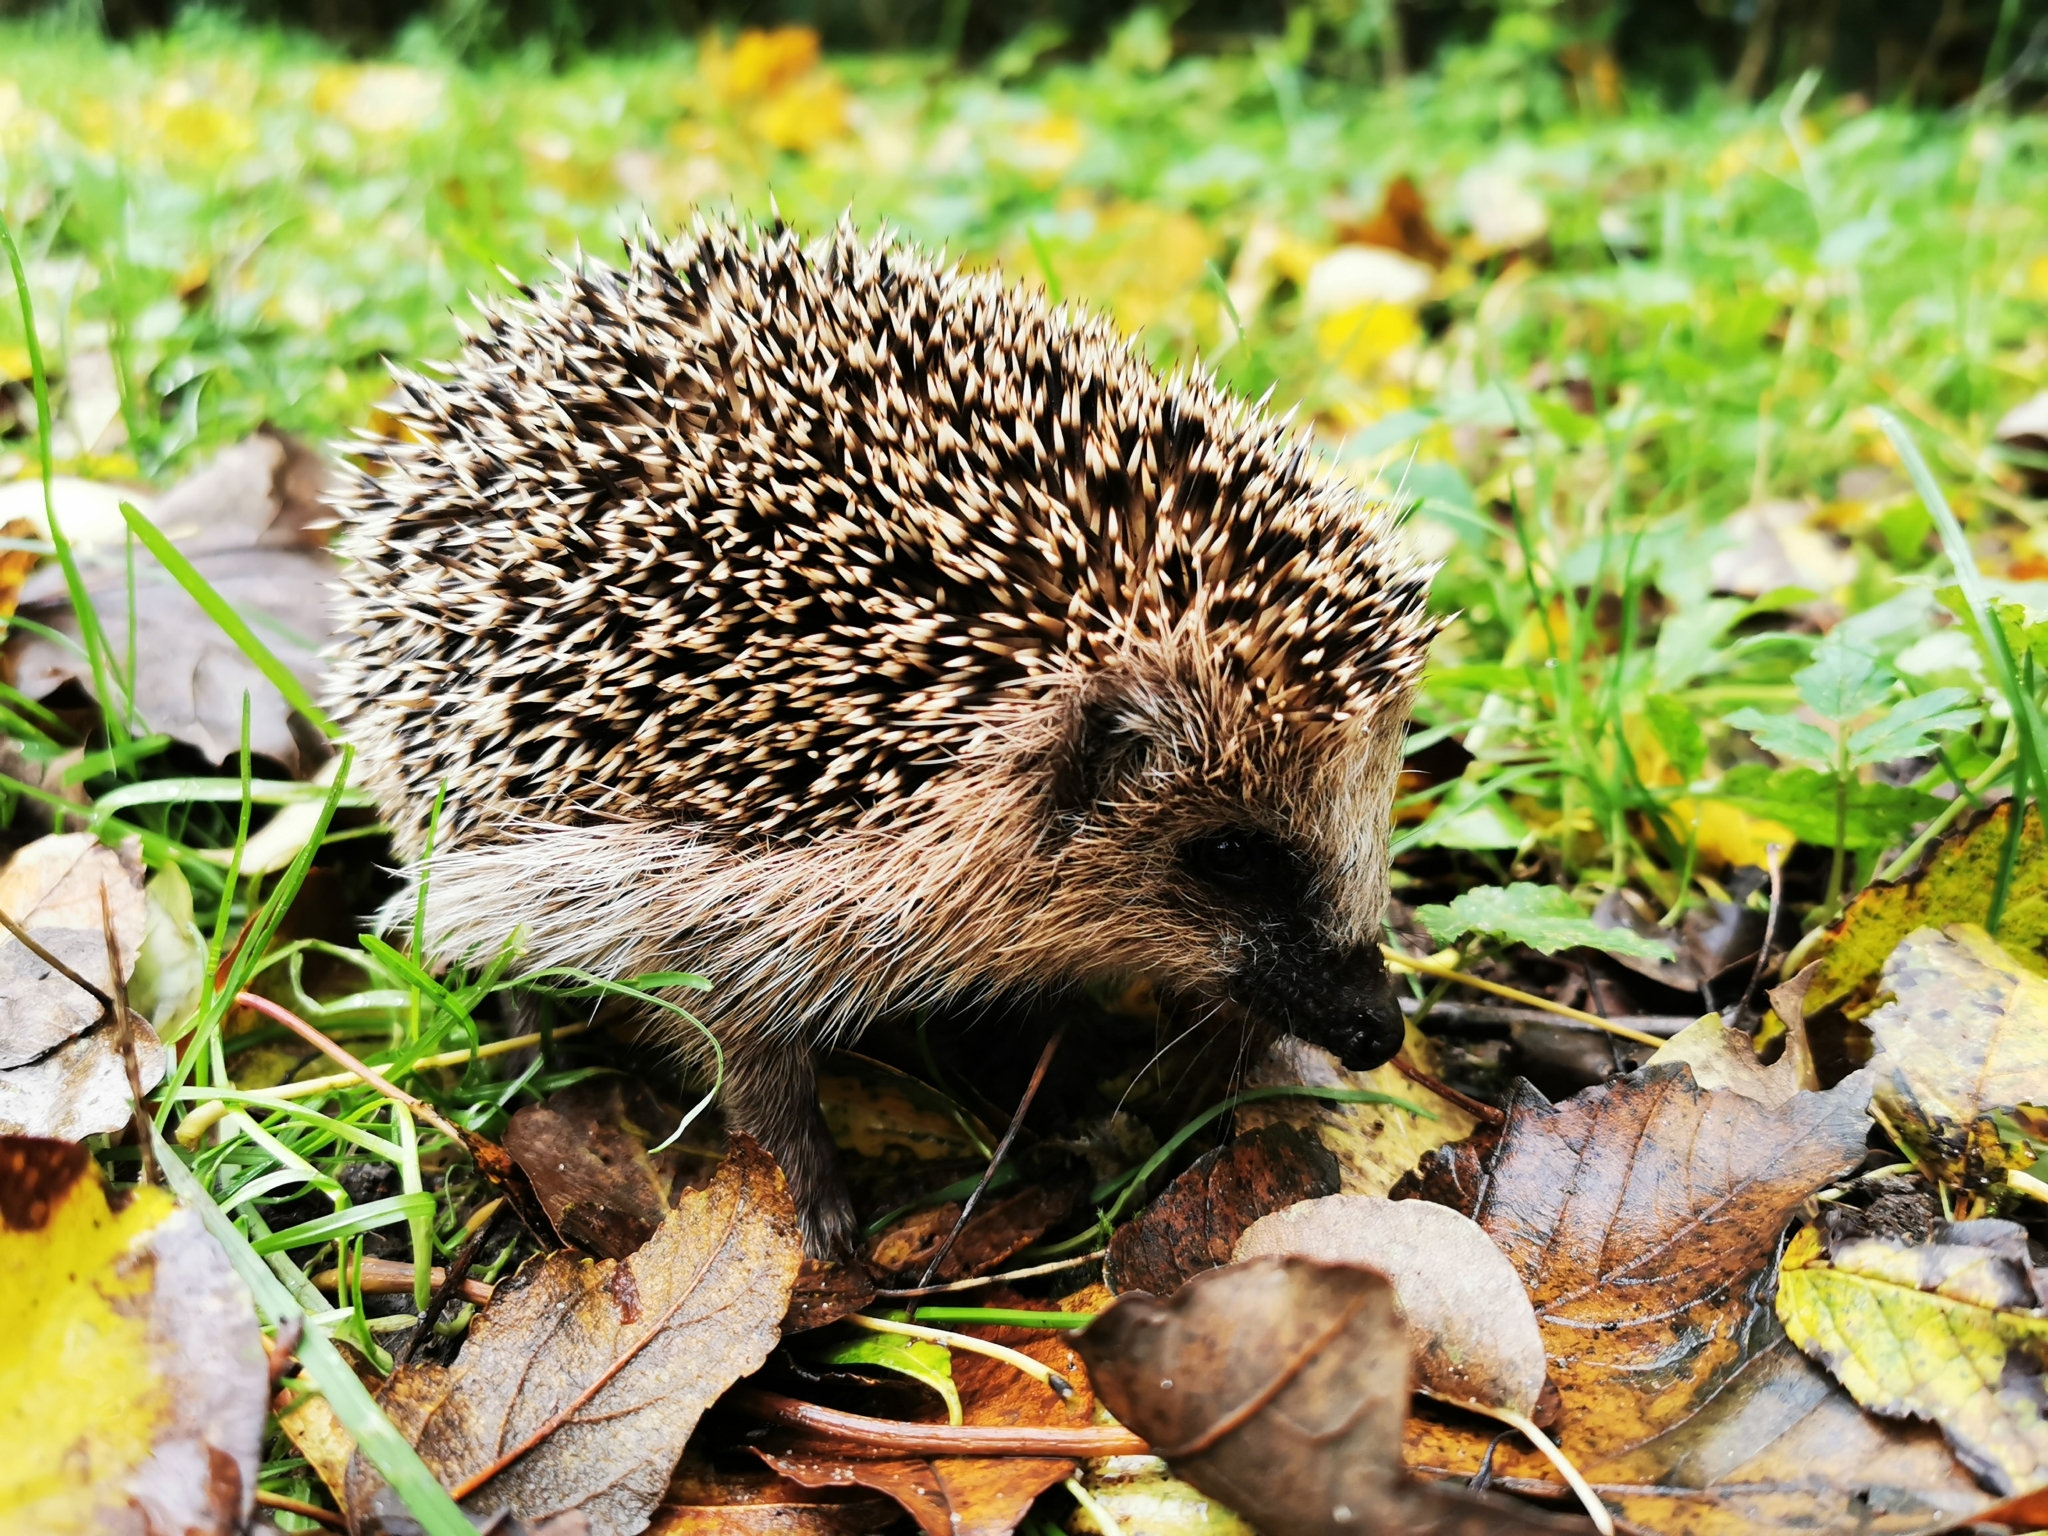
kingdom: Animalia
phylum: Chordata
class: Mammalia
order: Erinaceomorpha
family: Erinaceidae
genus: Erinaceus
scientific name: Erinaceus europaeus
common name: West european hedgehog
